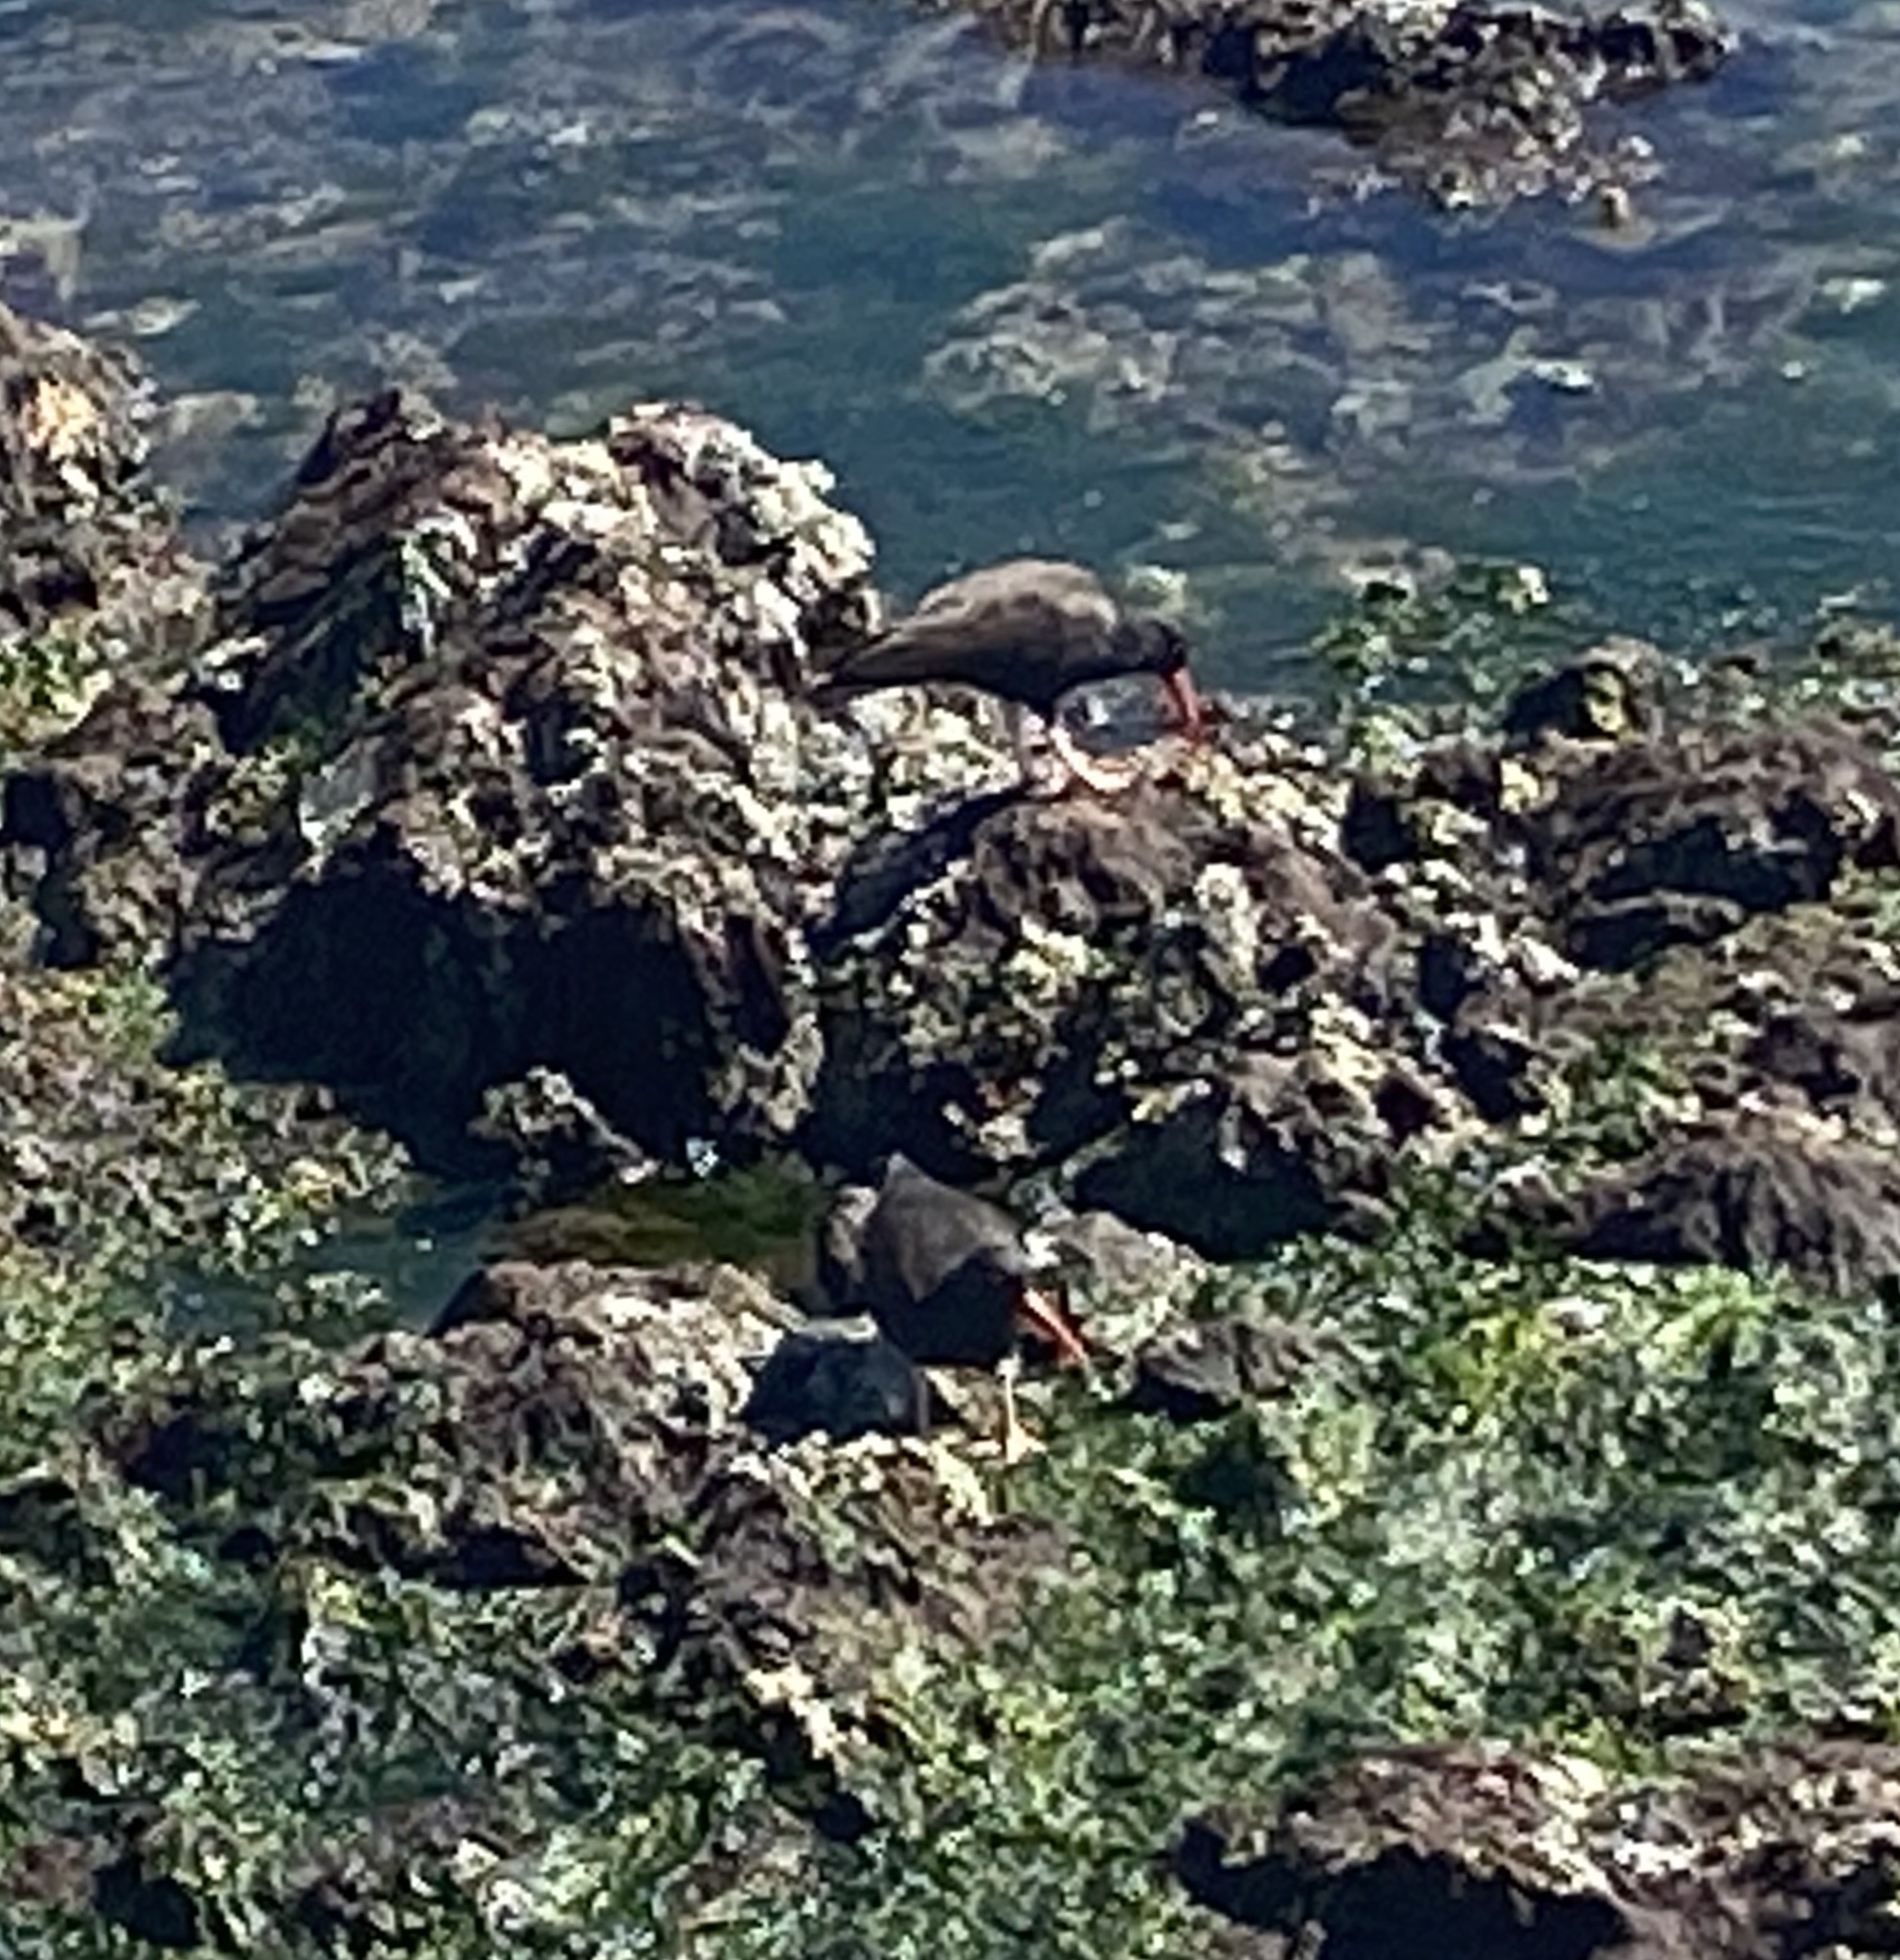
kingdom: Animalia
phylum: Chordata
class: Aves
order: Charadriiformes
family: Haematopodidae
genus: Haematopus
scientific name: Haematopus bachmani
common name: Black oystercatcher
